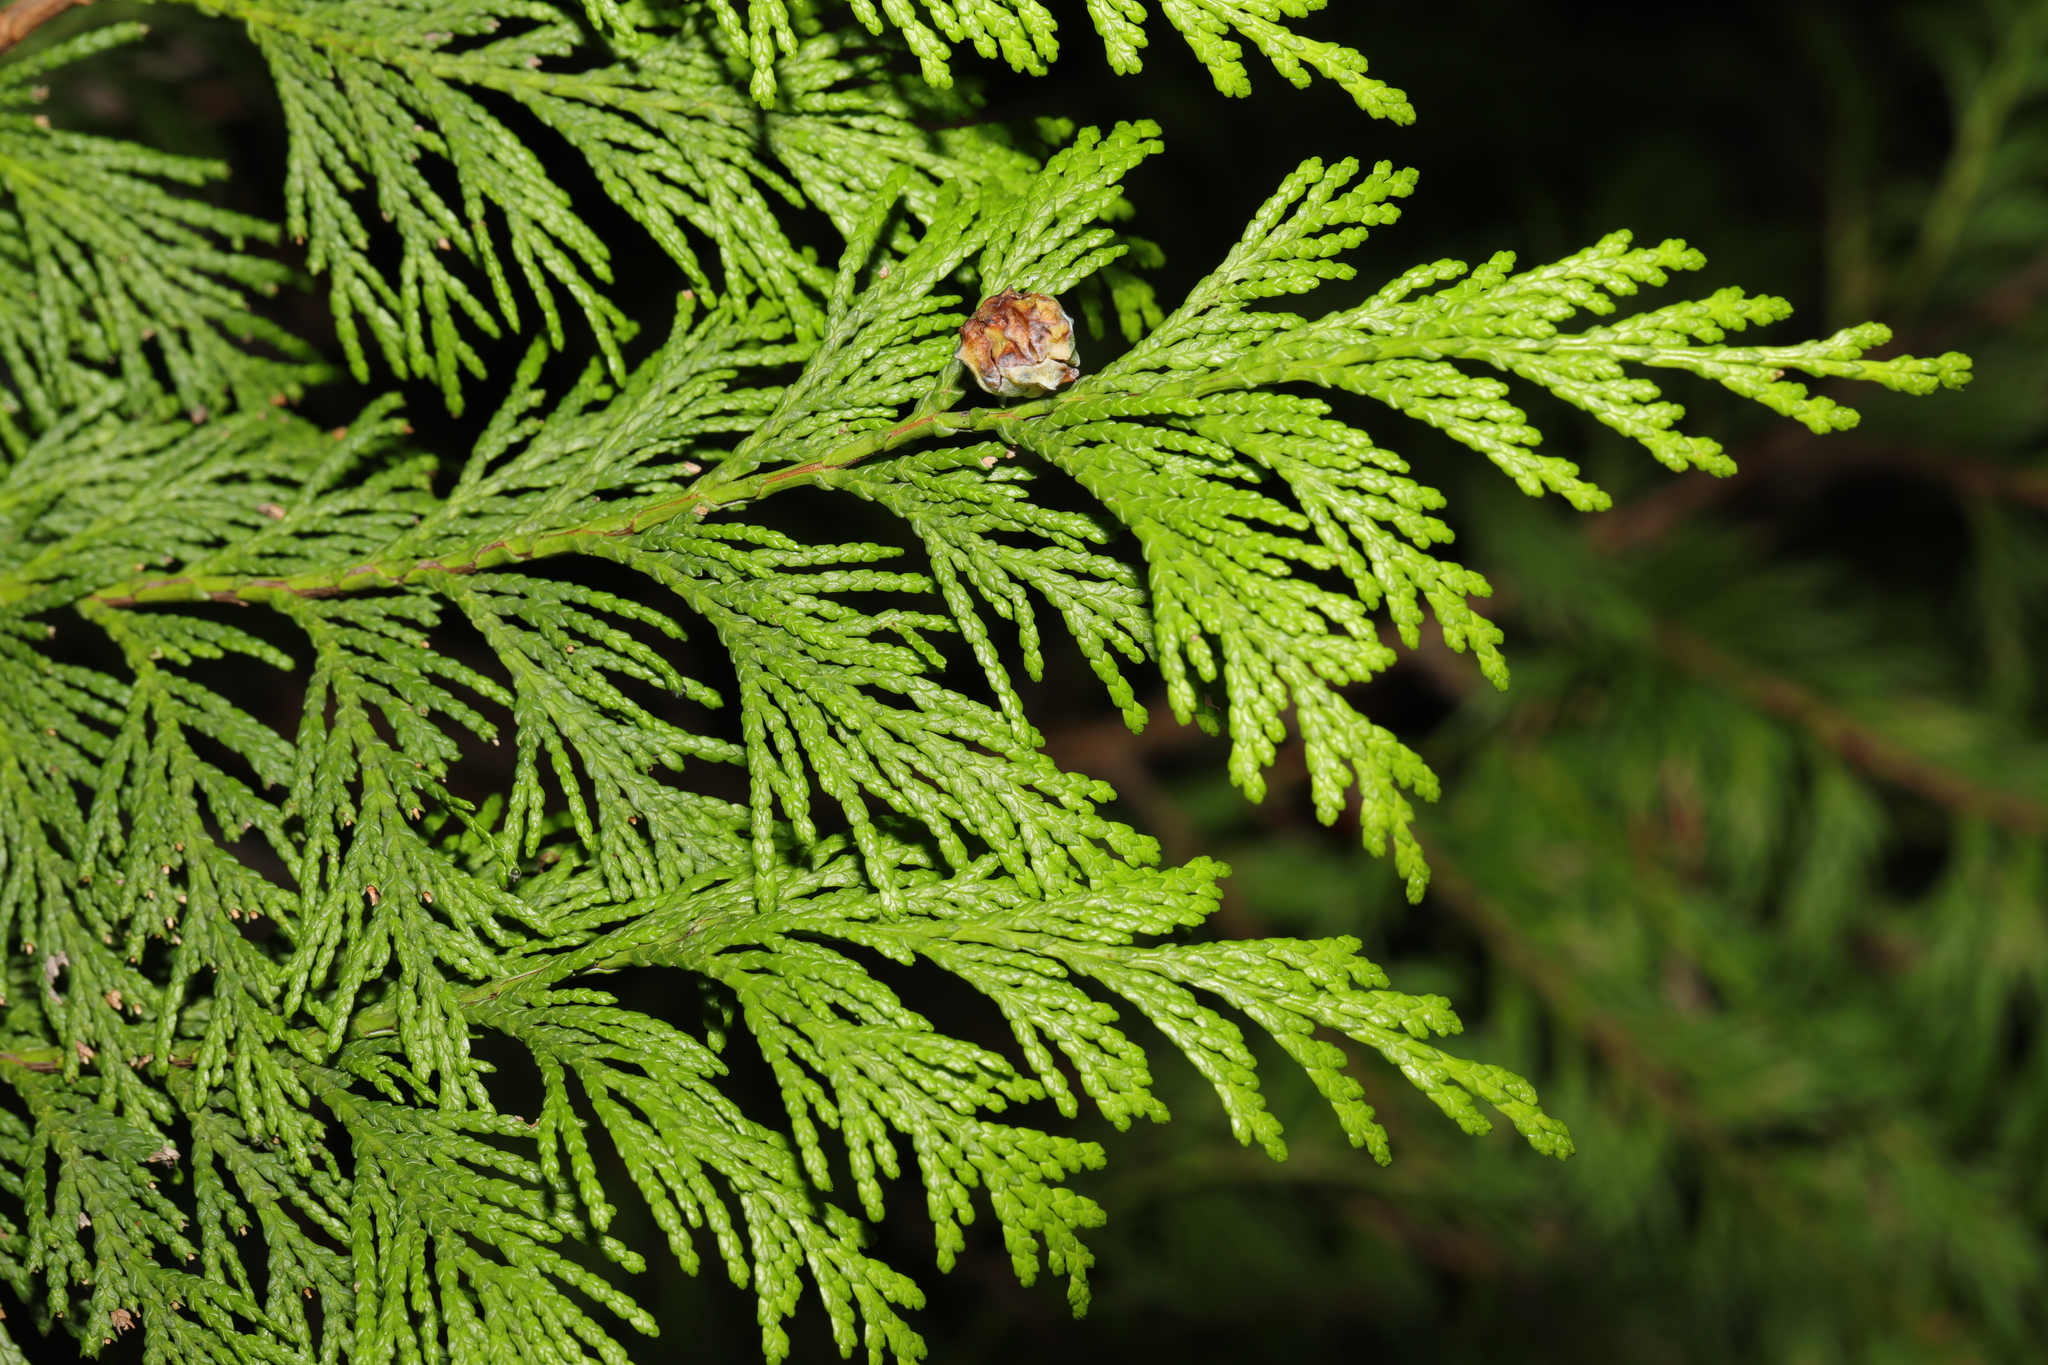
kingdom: Plantae
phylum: Tracheophyta
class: Pinopsida
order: Pinales
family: Cupressaceae
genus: Chamaecyparis
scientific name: Chamaecyparis lawsoniana
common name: Lawson's cypress
